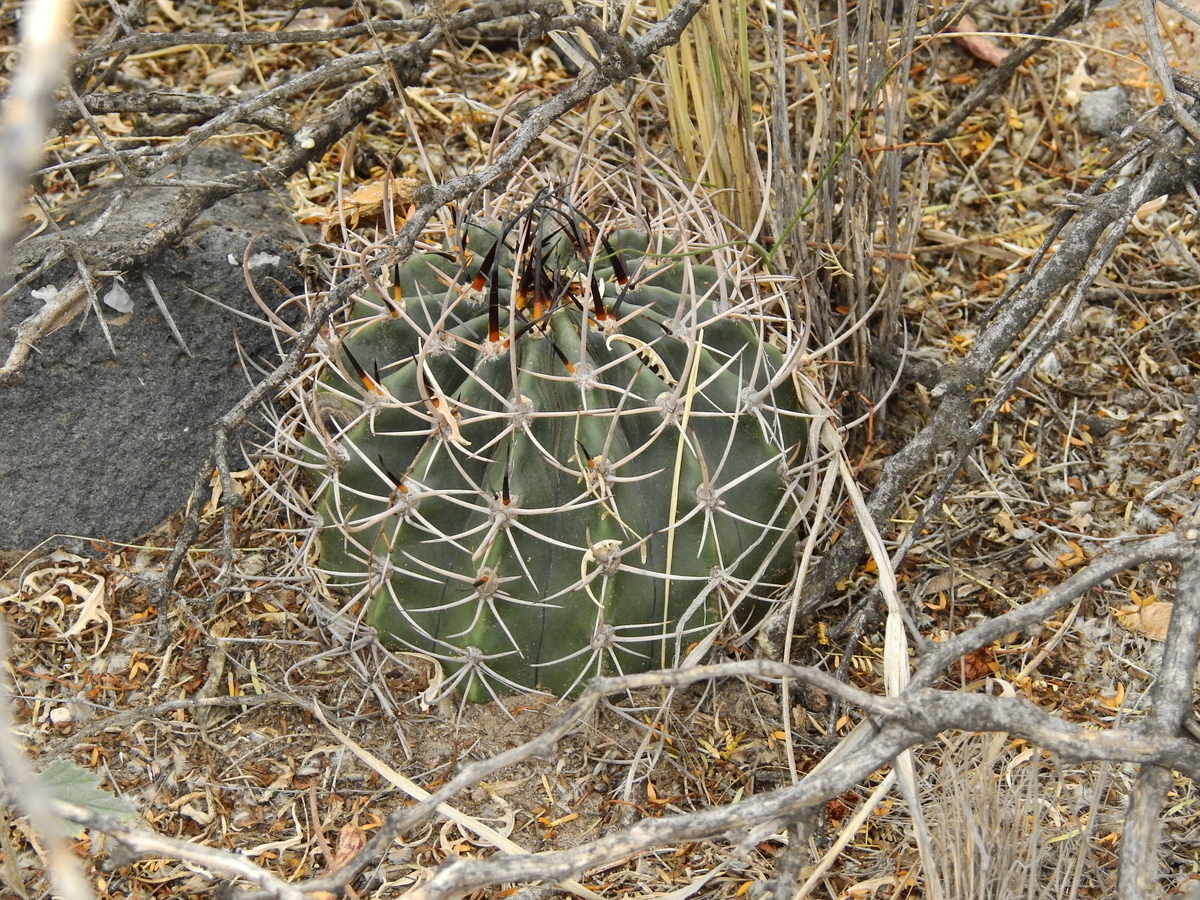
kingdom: Plantae
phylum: Tracheophyta
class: Magnoliopsida
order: Caryophyllales
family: Cactaceae
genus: Acanthocalycium
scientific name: Acanthocalycium leucanthum
